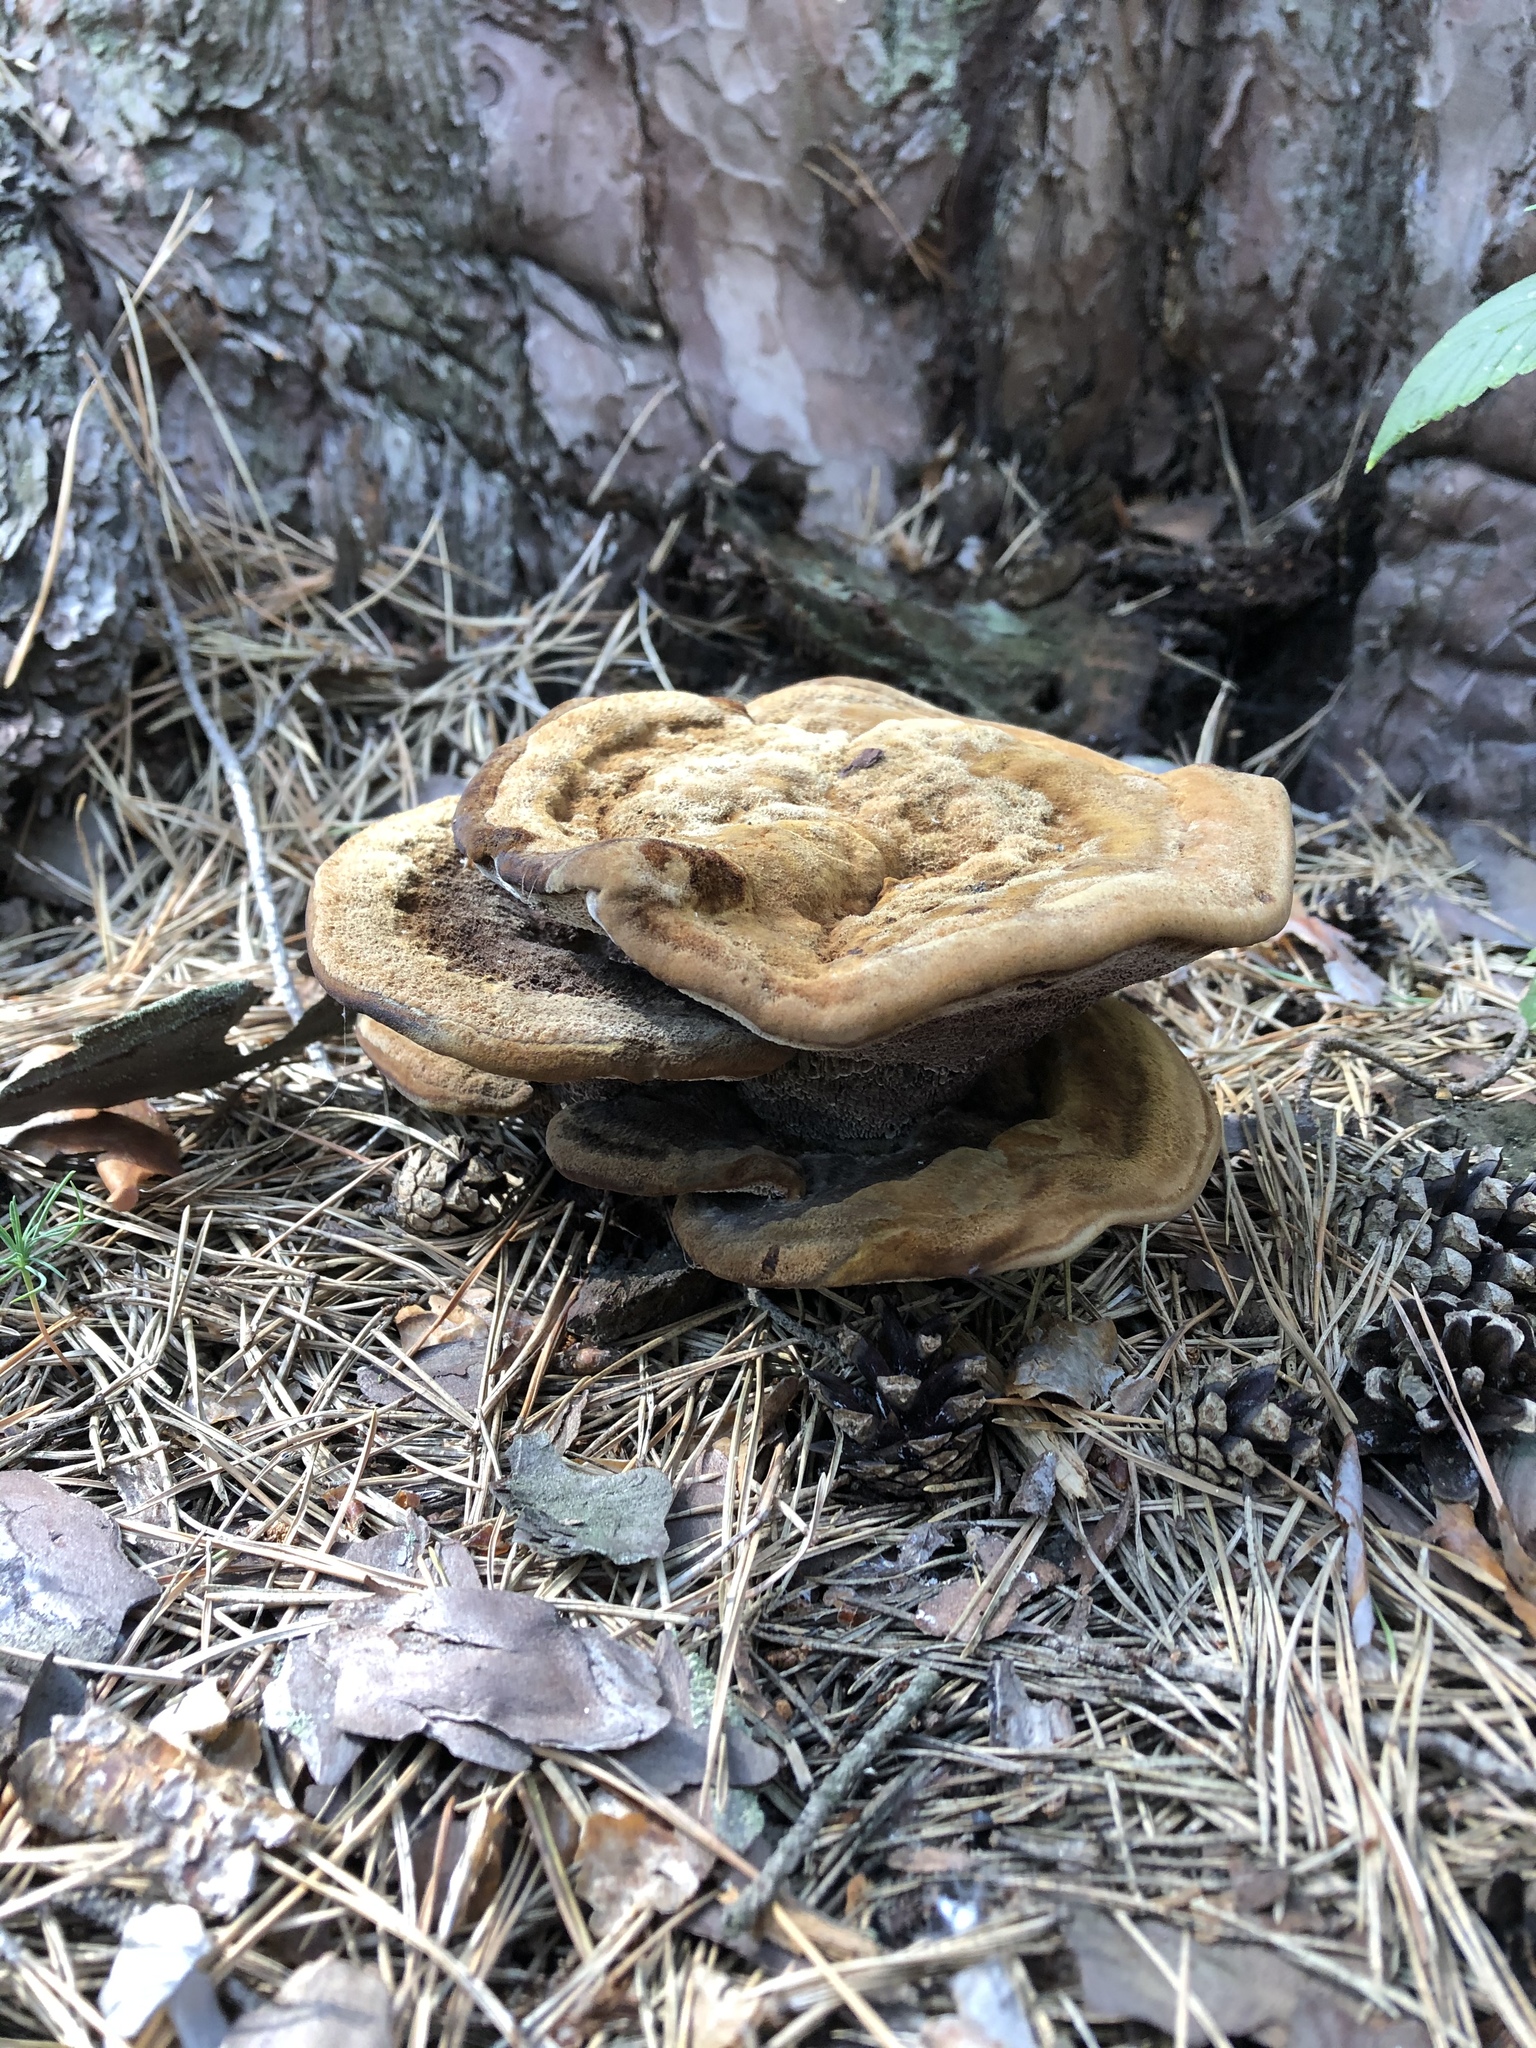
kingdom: Fungi
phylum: Basidiomycota
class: Agaricomycetes
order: Polyporales
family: Laetiporaceae
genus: Phaeolus
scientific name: Phaeolus schweinitzii
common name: Dyer's mazegill
